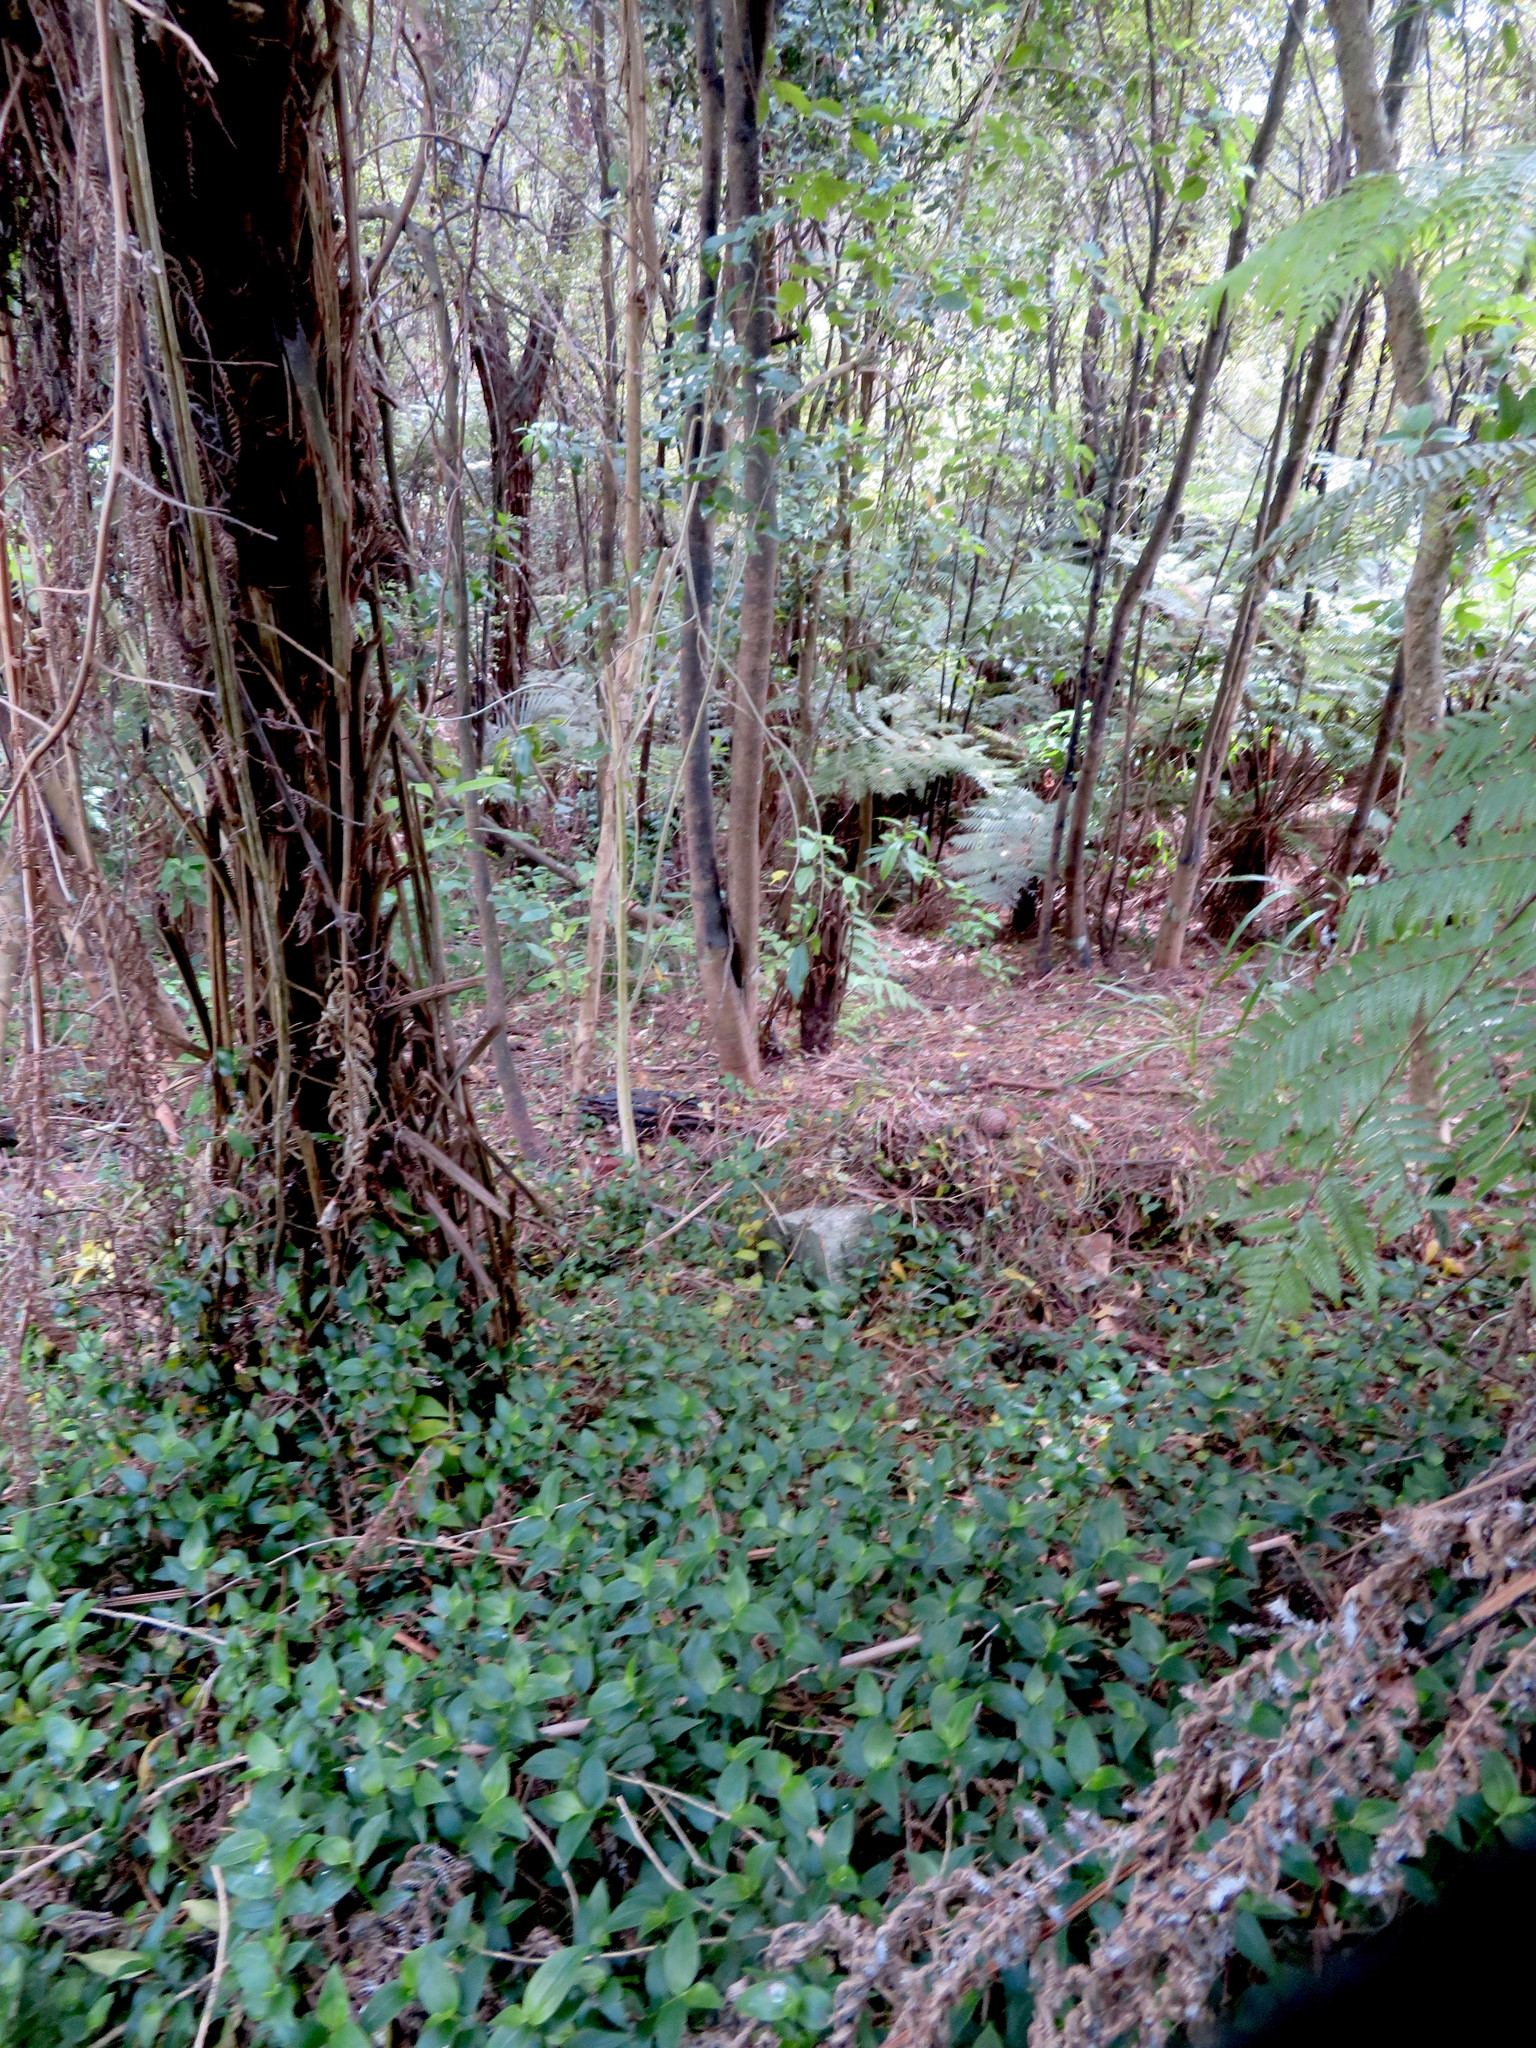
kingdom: Plantae
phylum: Tracheophyta
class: Liliopsida
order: Commelinales
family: Commelinaceae
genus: Tradescantia
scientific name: Tradescantia fluminensis
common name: Wandering-jew
